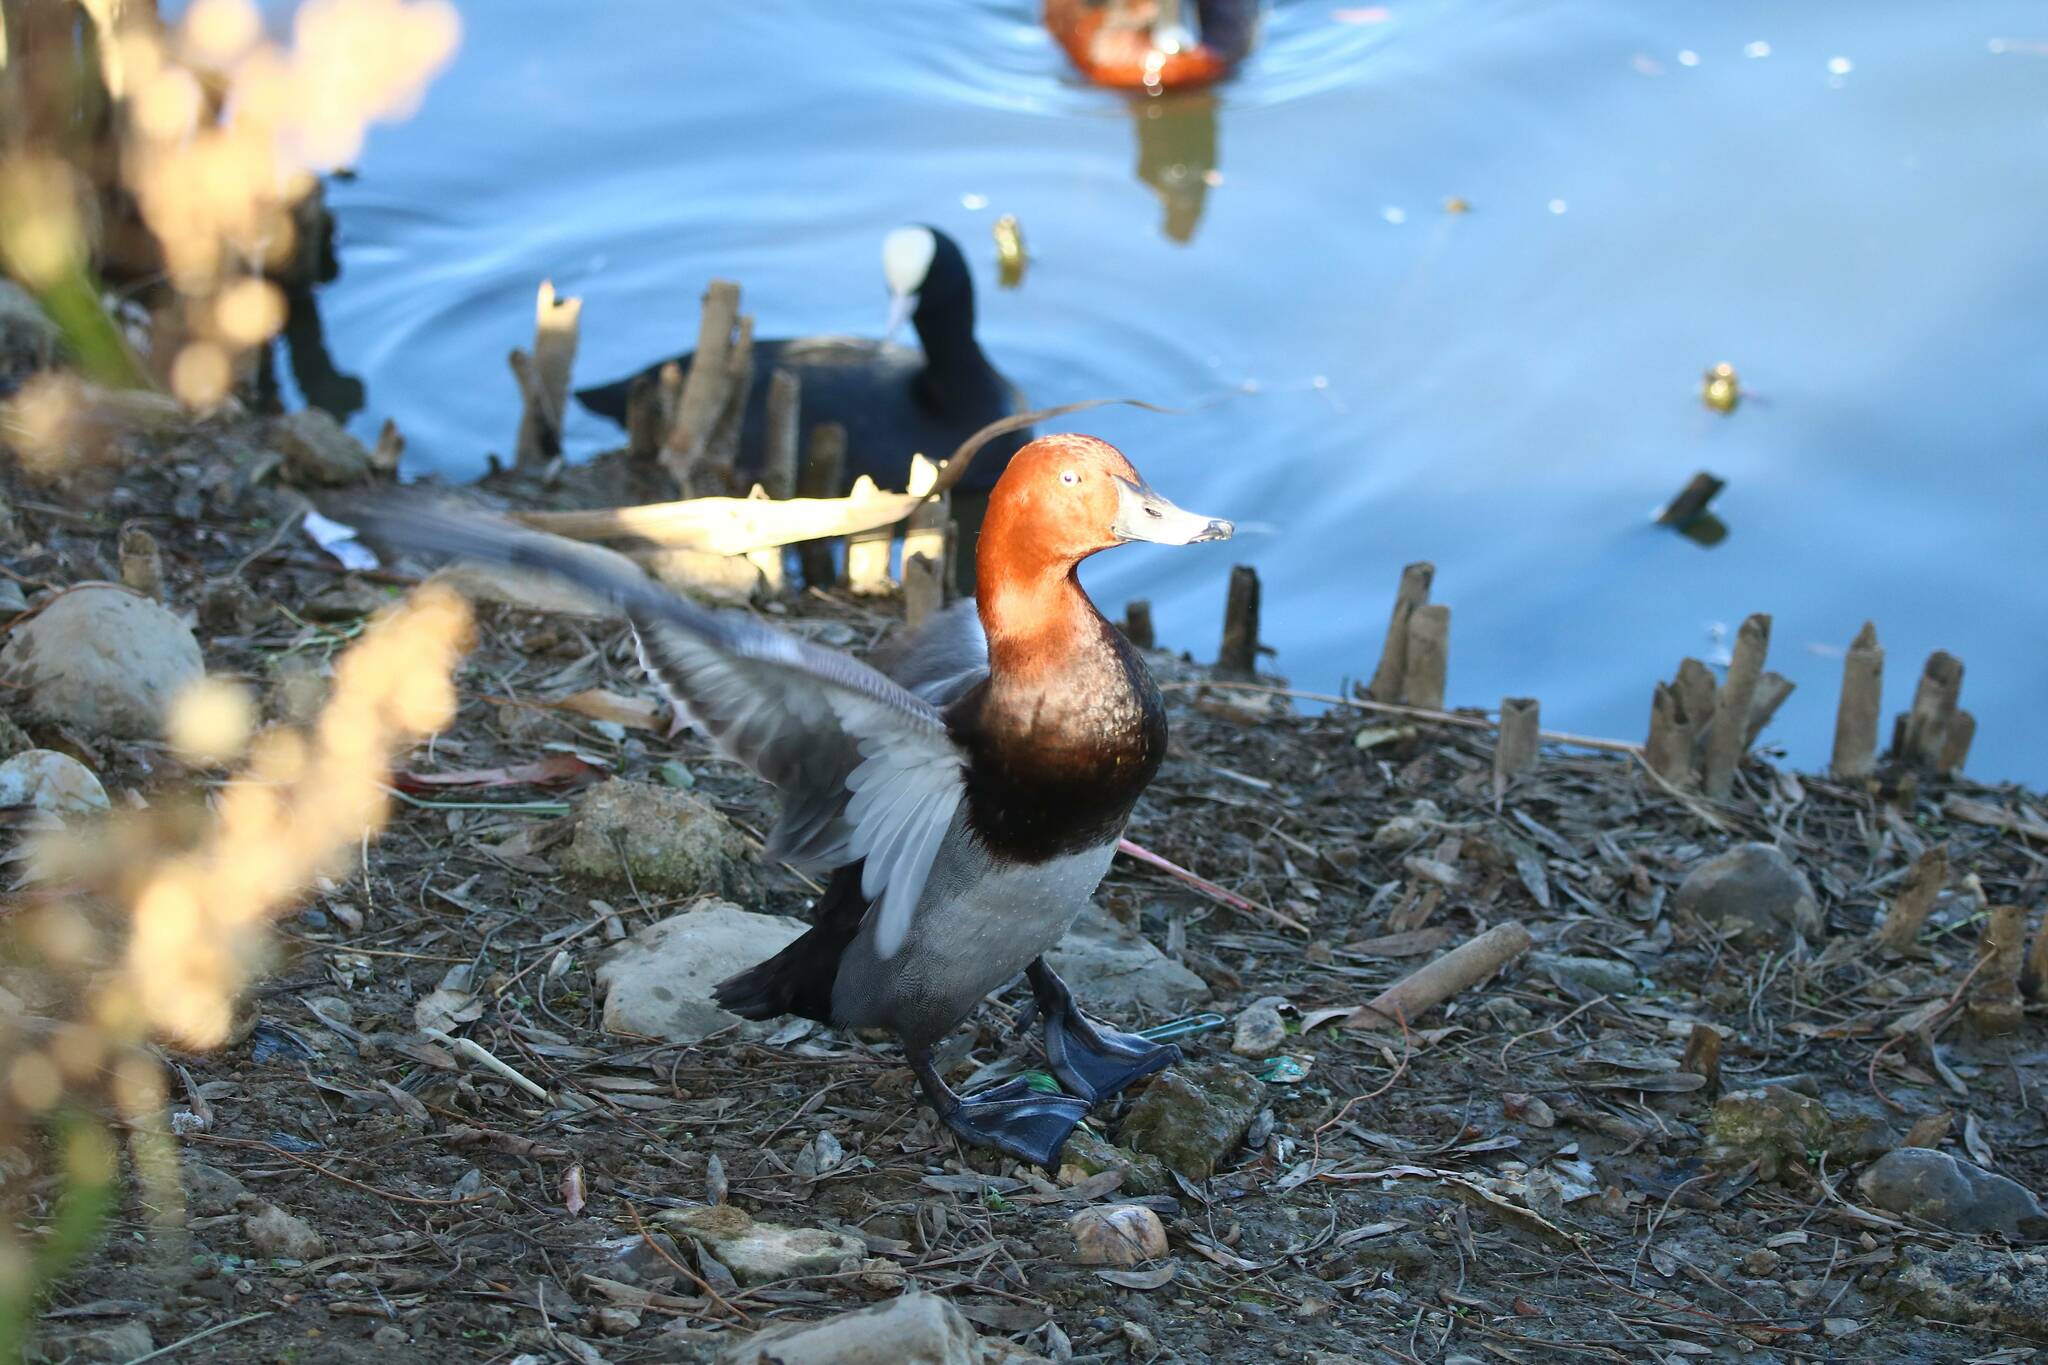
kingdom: Animalia
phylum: Chordata
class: Aves
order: Anseriformes
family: Anatidae
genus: Aythya
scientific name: Aythya ferina
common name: Common pochard
